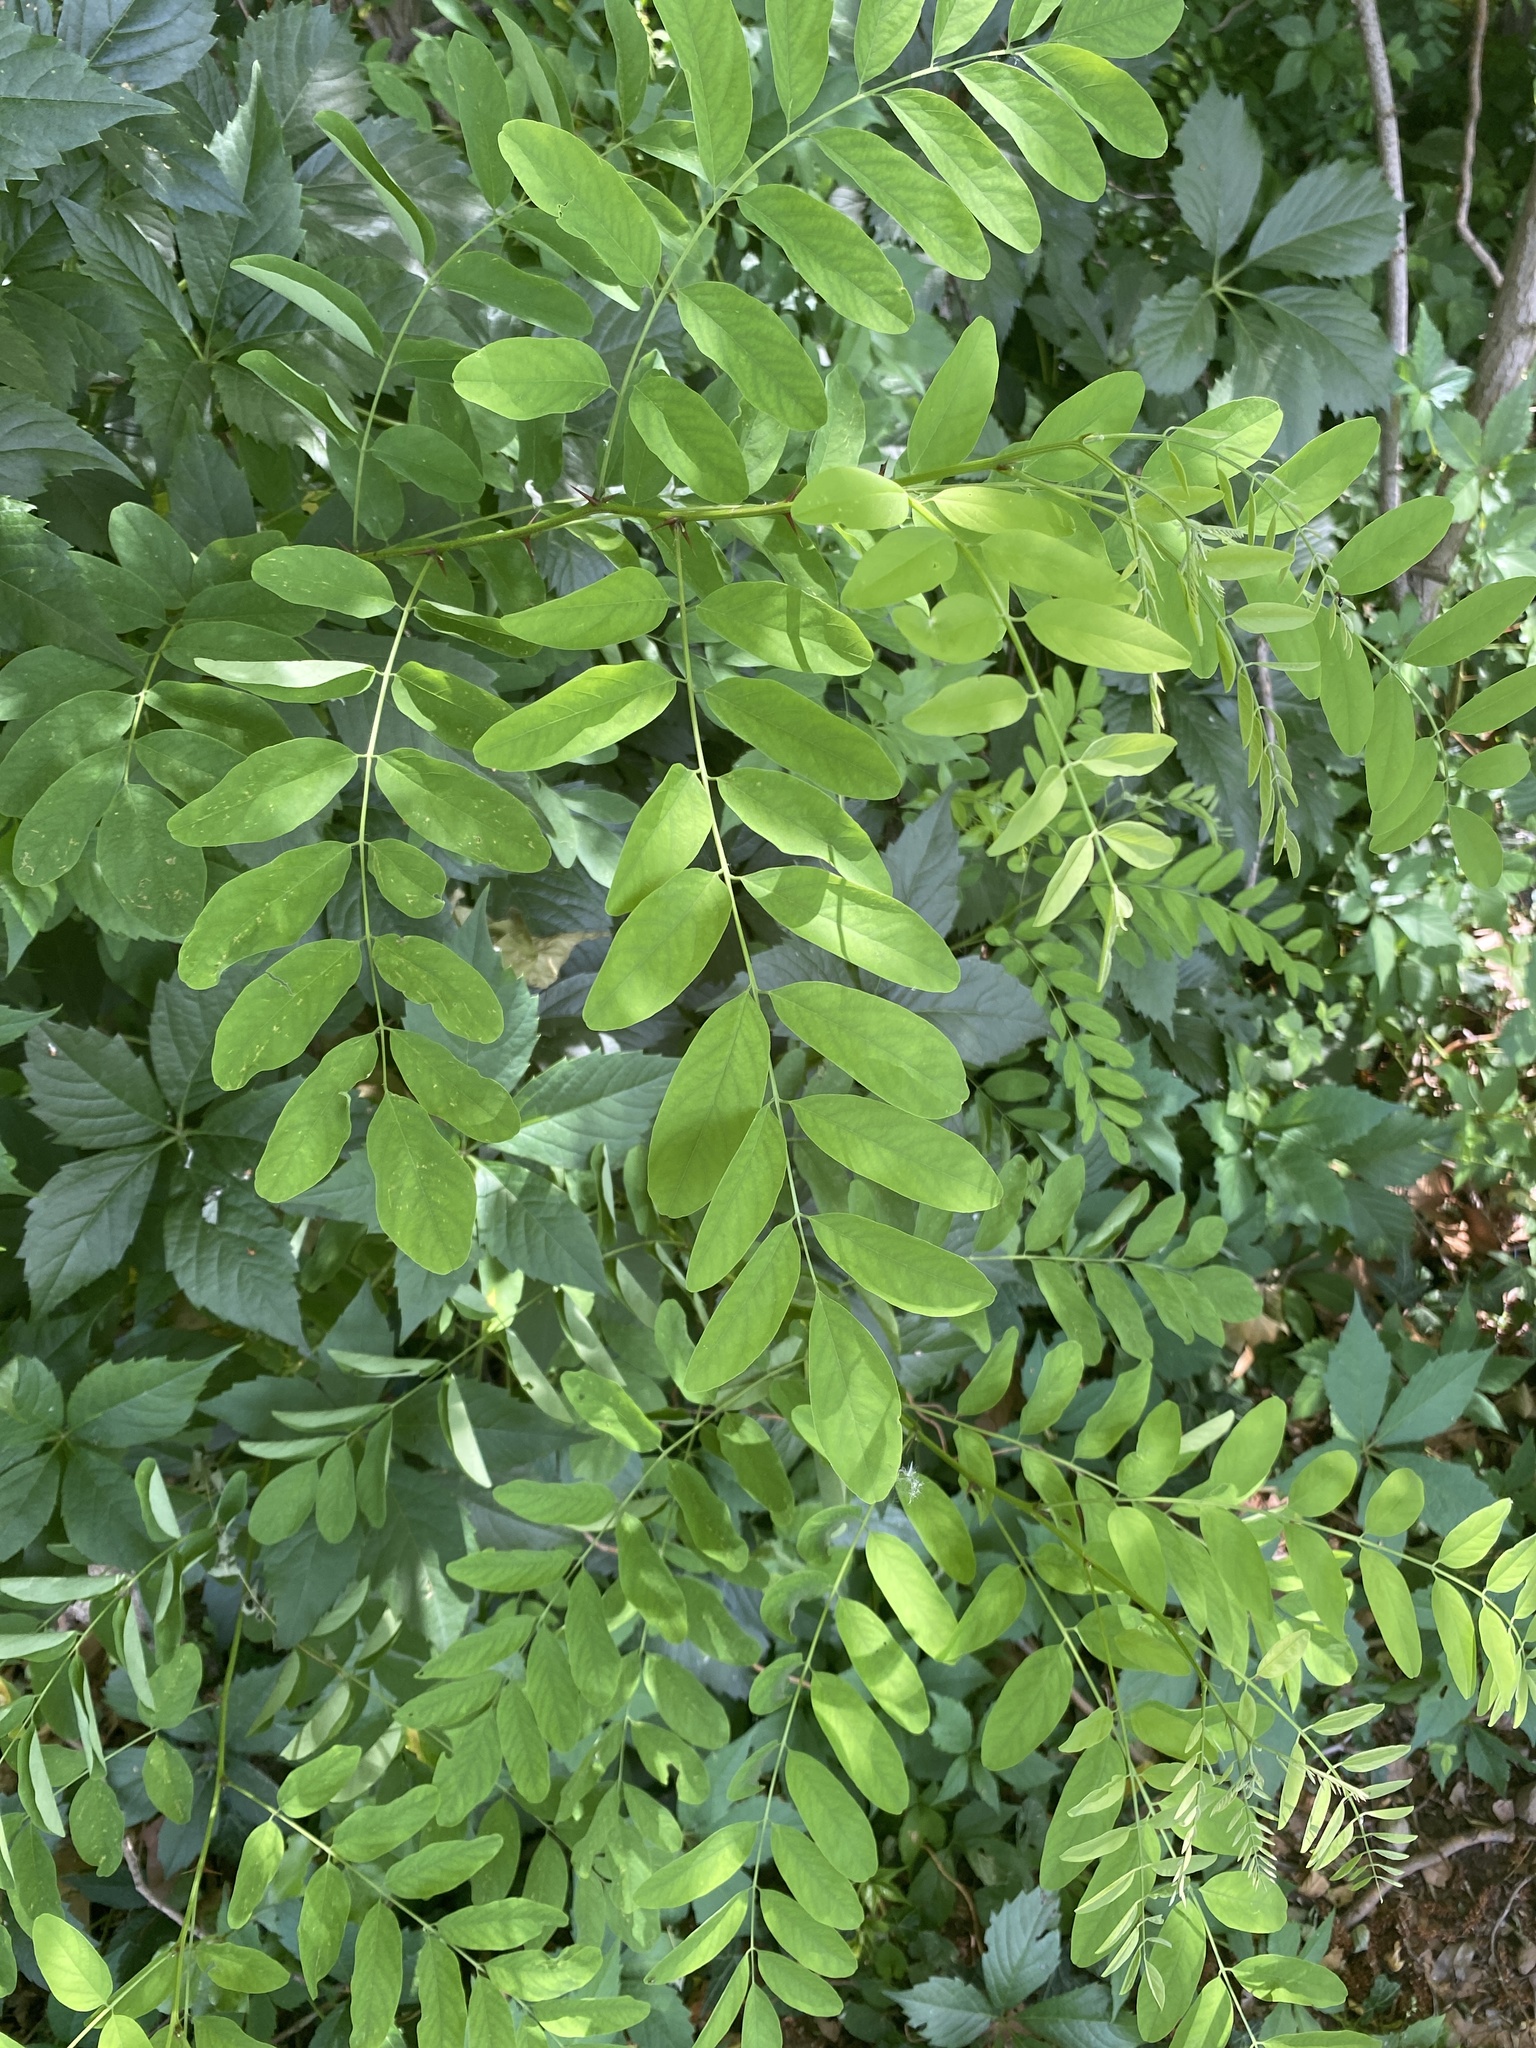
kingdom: Plantae
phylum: Tracheophyta
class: Magnoliopsida
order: Fabales
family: Fabaceae
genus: Robinia
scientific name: Robinia pseudoacacia
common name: Black locust
